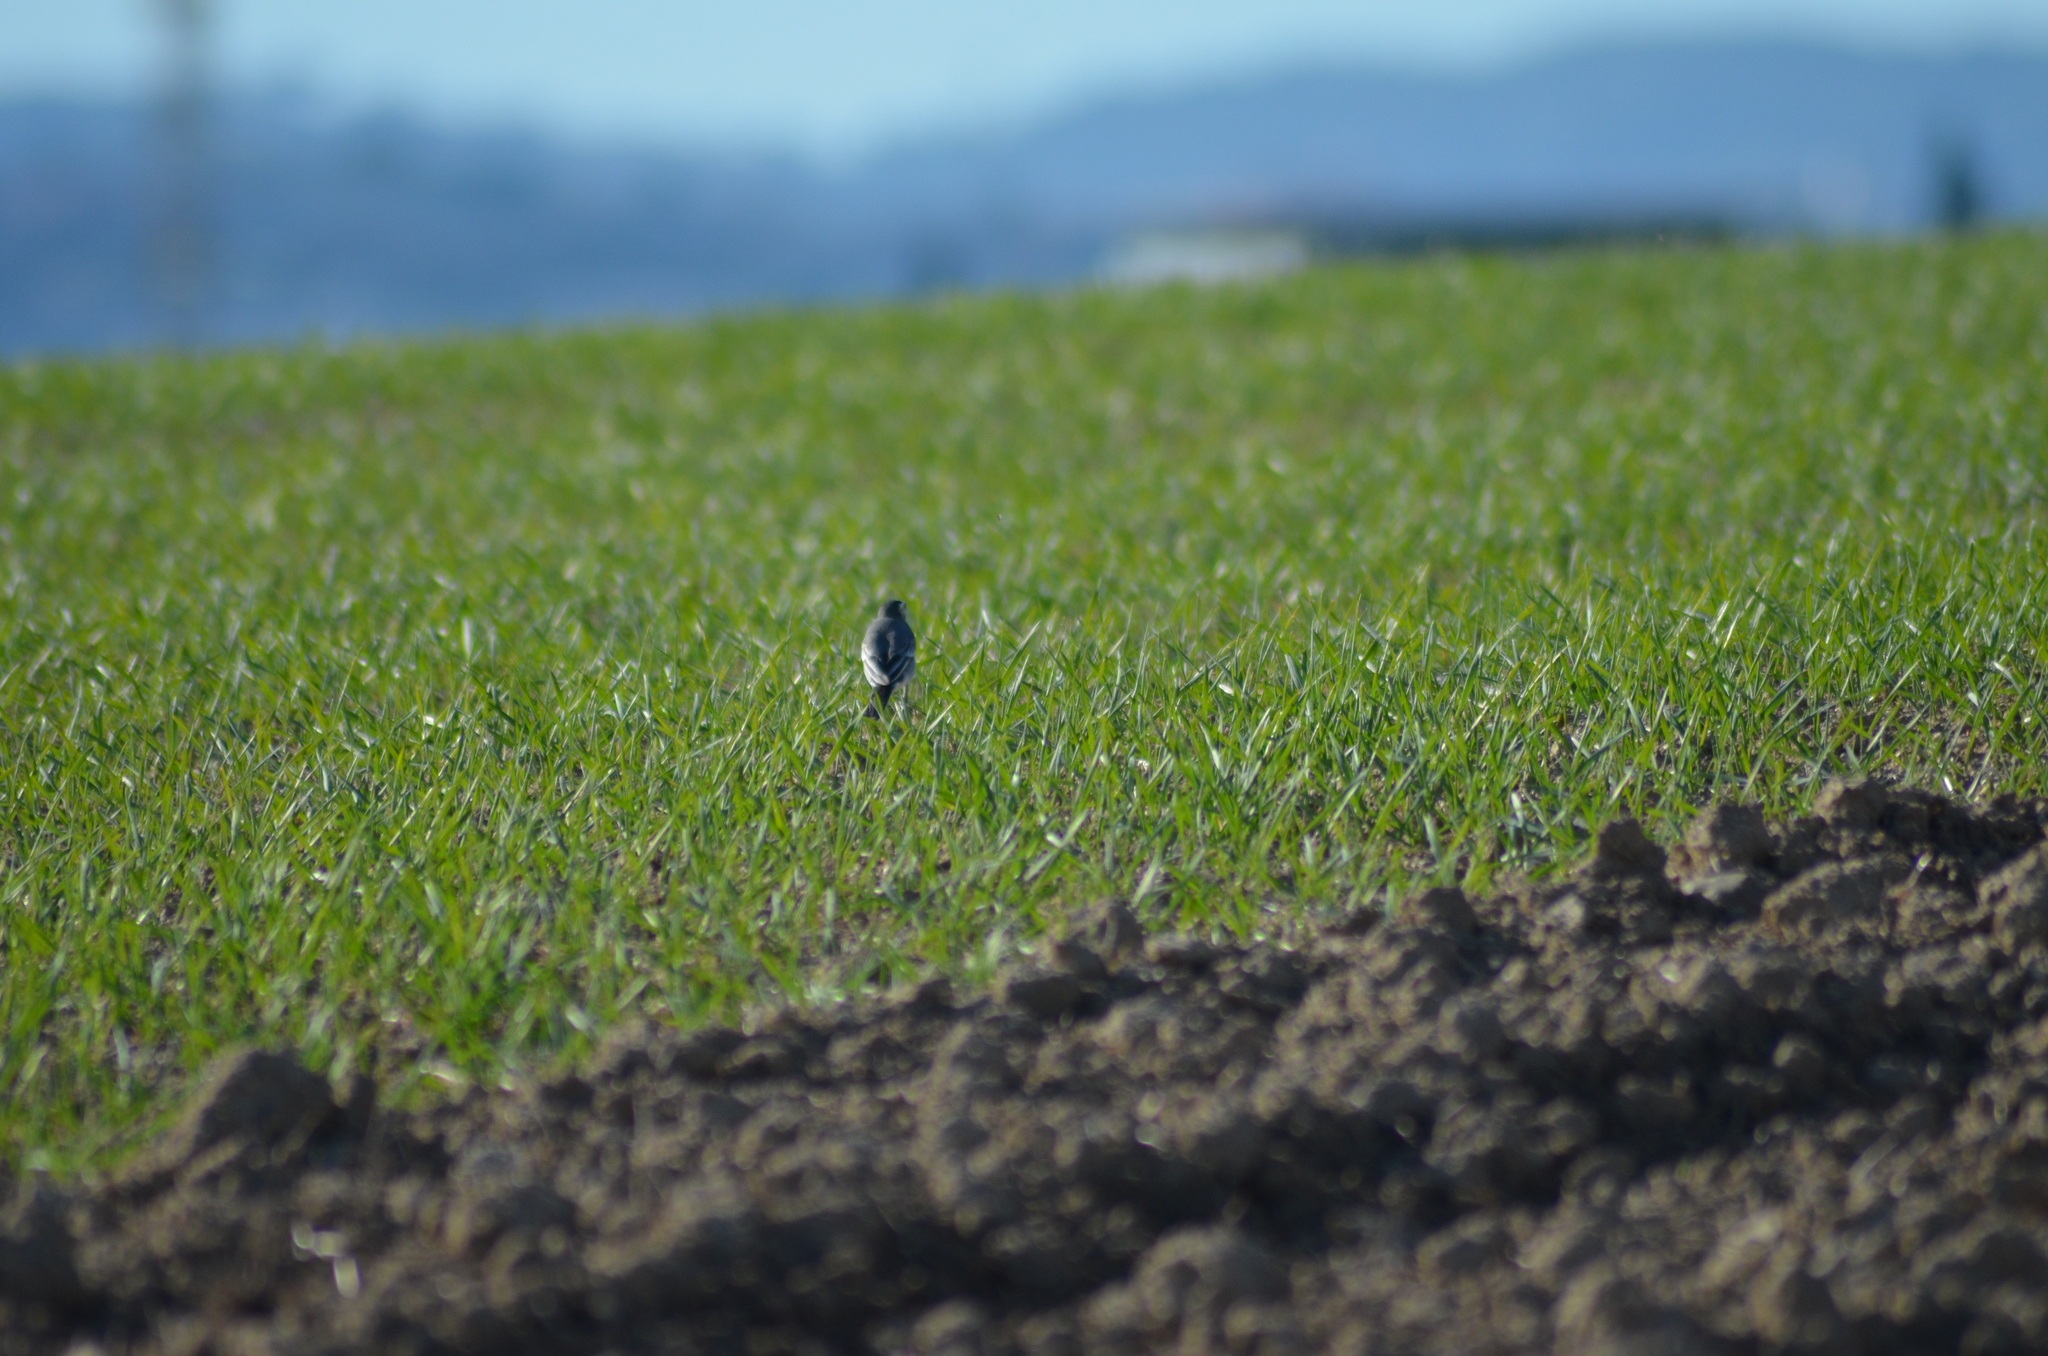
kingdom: Animalia
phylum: Chordata
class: Aves
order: Passeriformes
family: Muscicapidae
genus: Phoenicurus
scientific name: Phoenicurus ochruros
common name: Black redstart
